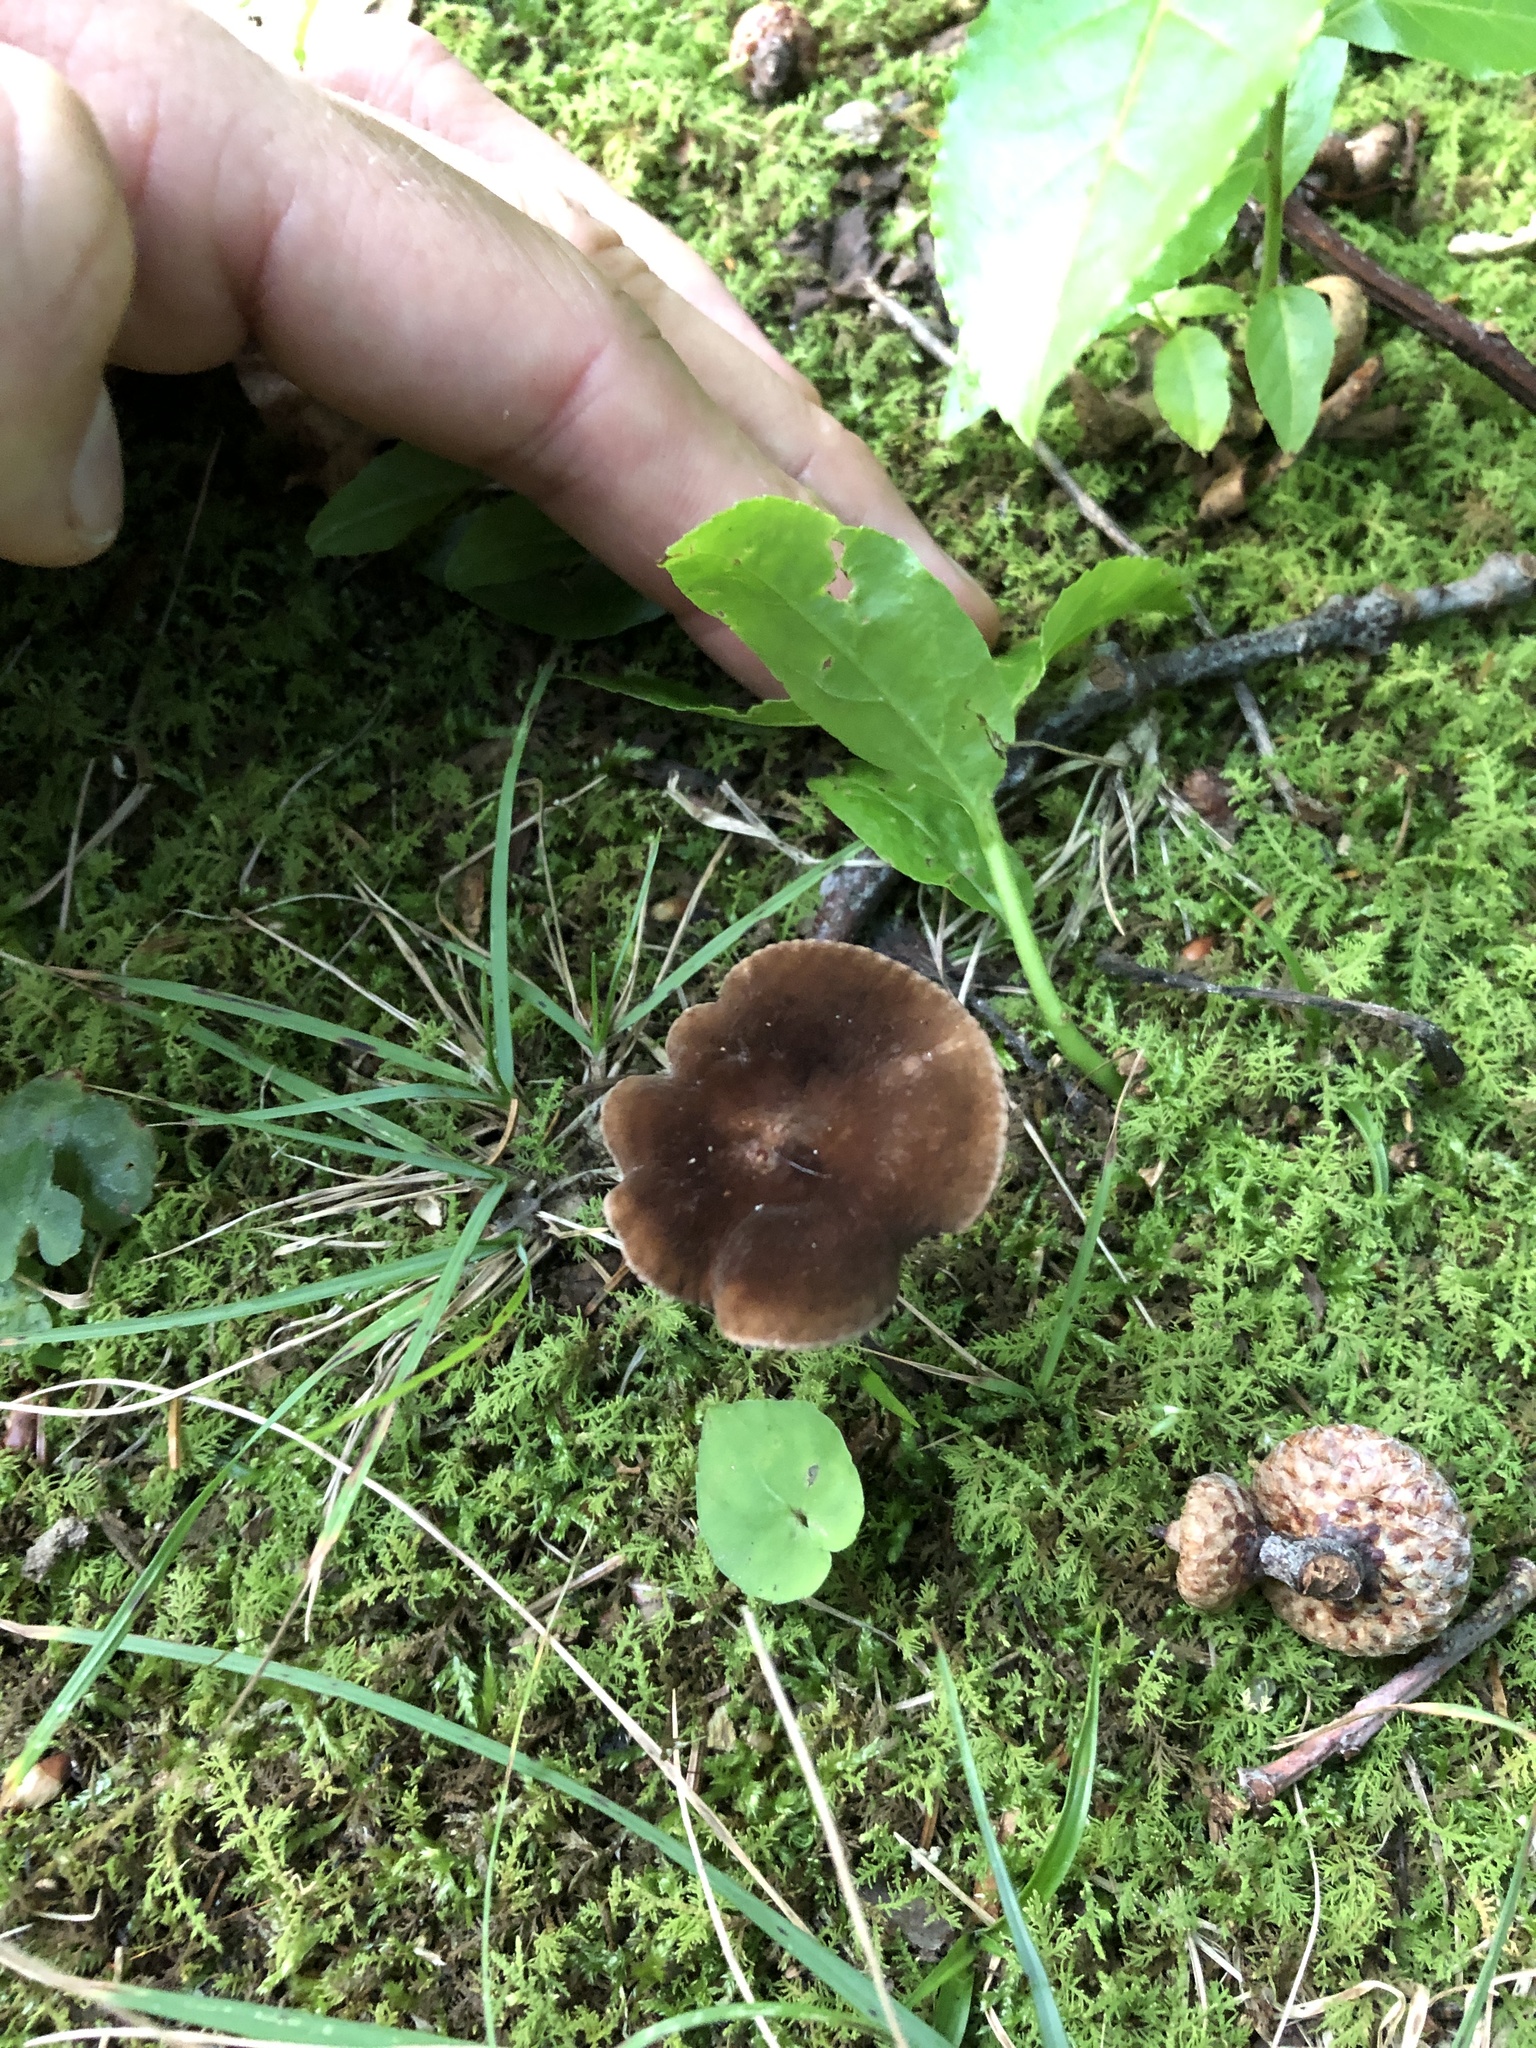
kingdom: Fungi
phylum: Basidiomycota
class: Agaricomycetes
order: Russulales
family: Russulaceae
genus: Lactarius
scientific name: Lactarius lignyotus
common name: Velvet milkcap
